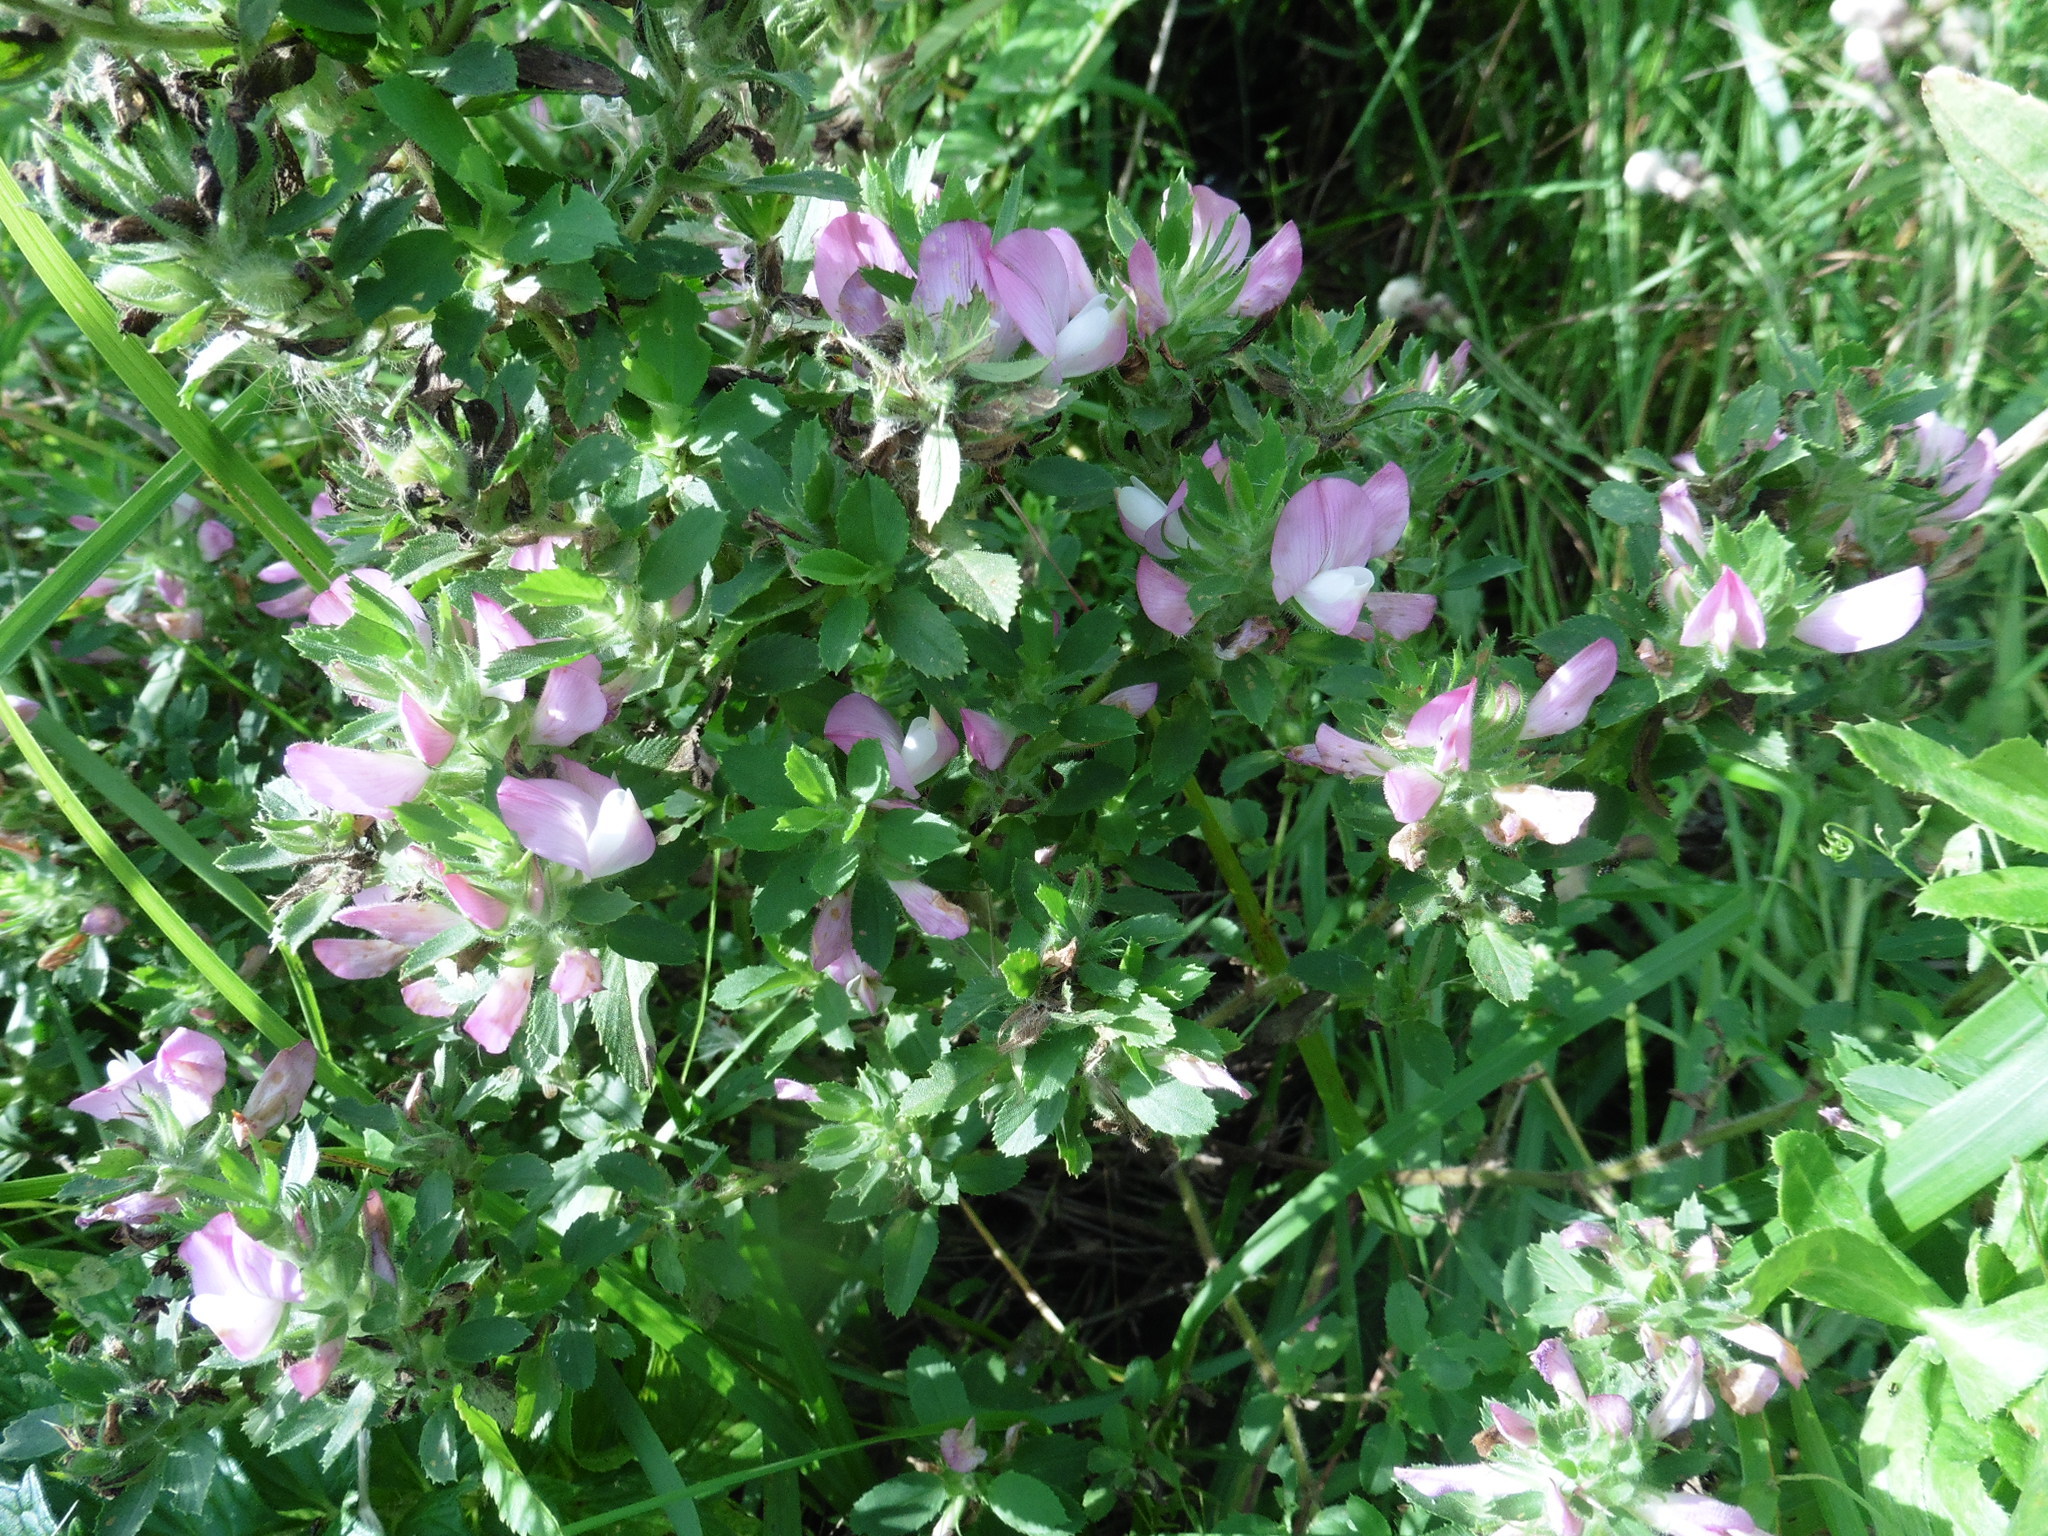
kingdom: Plantae
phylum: Tracheophyta
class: Magnoliopsida
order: Fabales
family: Fabaceae
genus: Ononis
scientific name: Ononis arvensis
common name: Field restharrow
